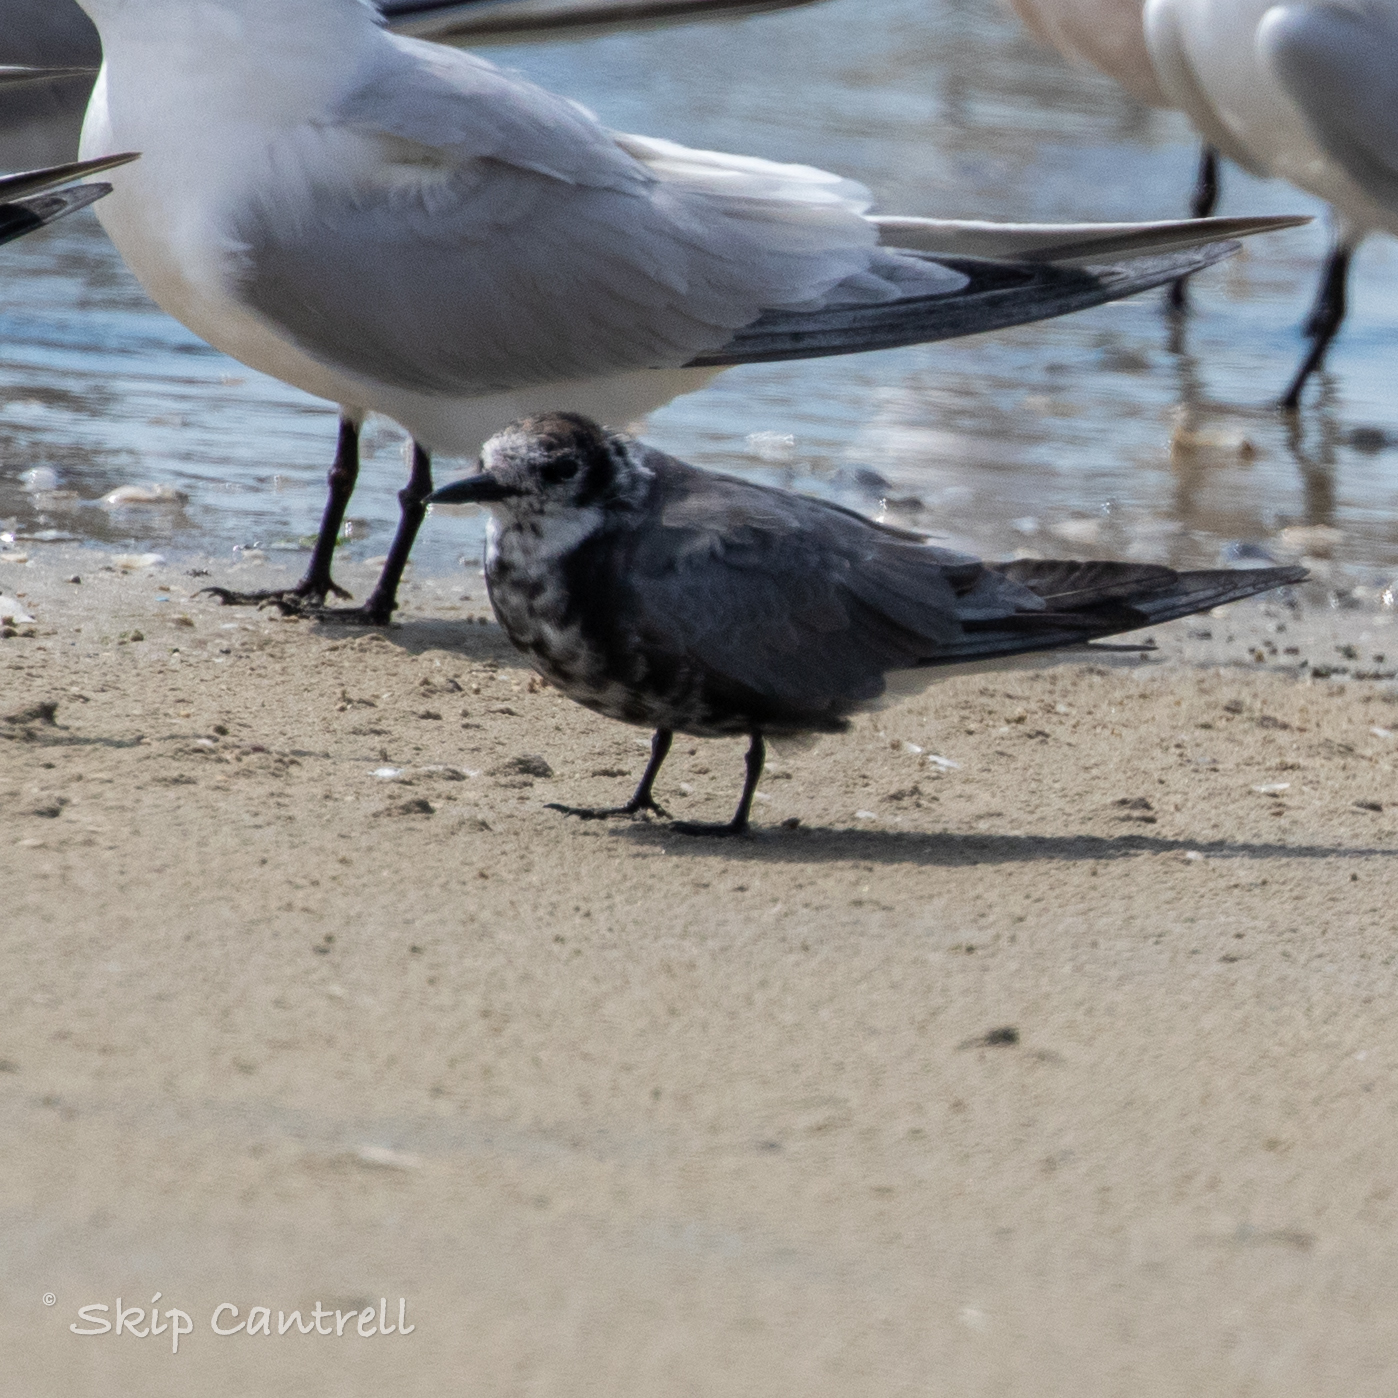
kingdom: Animalia
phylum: Chordata
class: Aves
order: Charadriiformes
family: Laridae
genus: Chlidonias
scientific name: Chlidonias niger
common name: Black tern
